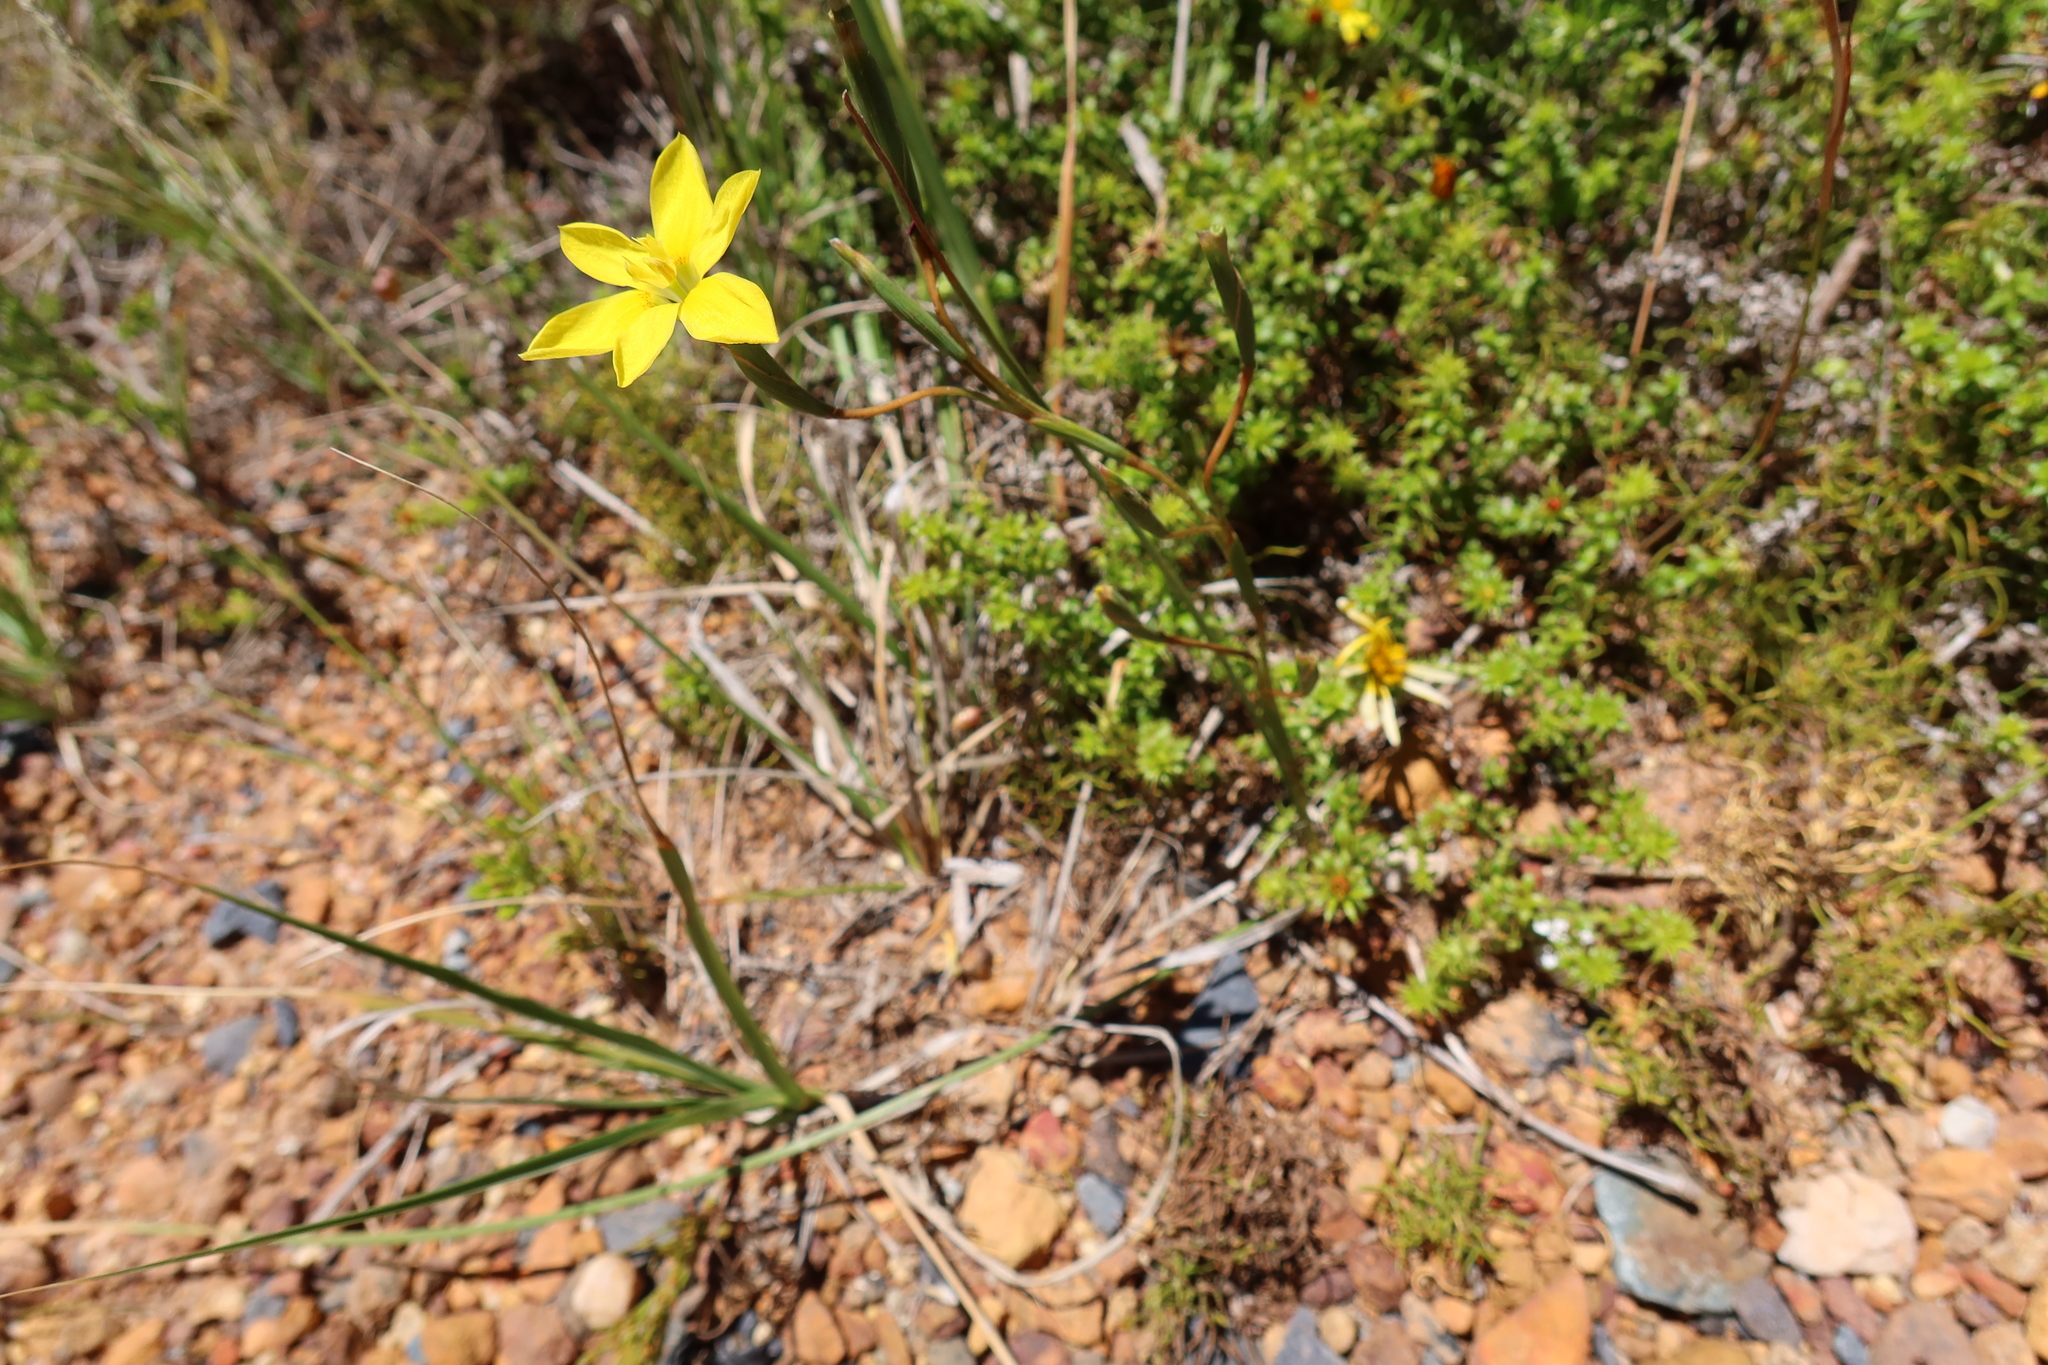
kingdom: Plantae
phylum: Tracheophyta
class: Liliopsida
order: Asparagales
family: Iridaceae
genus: Moraea
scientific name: Moraea elsiae
